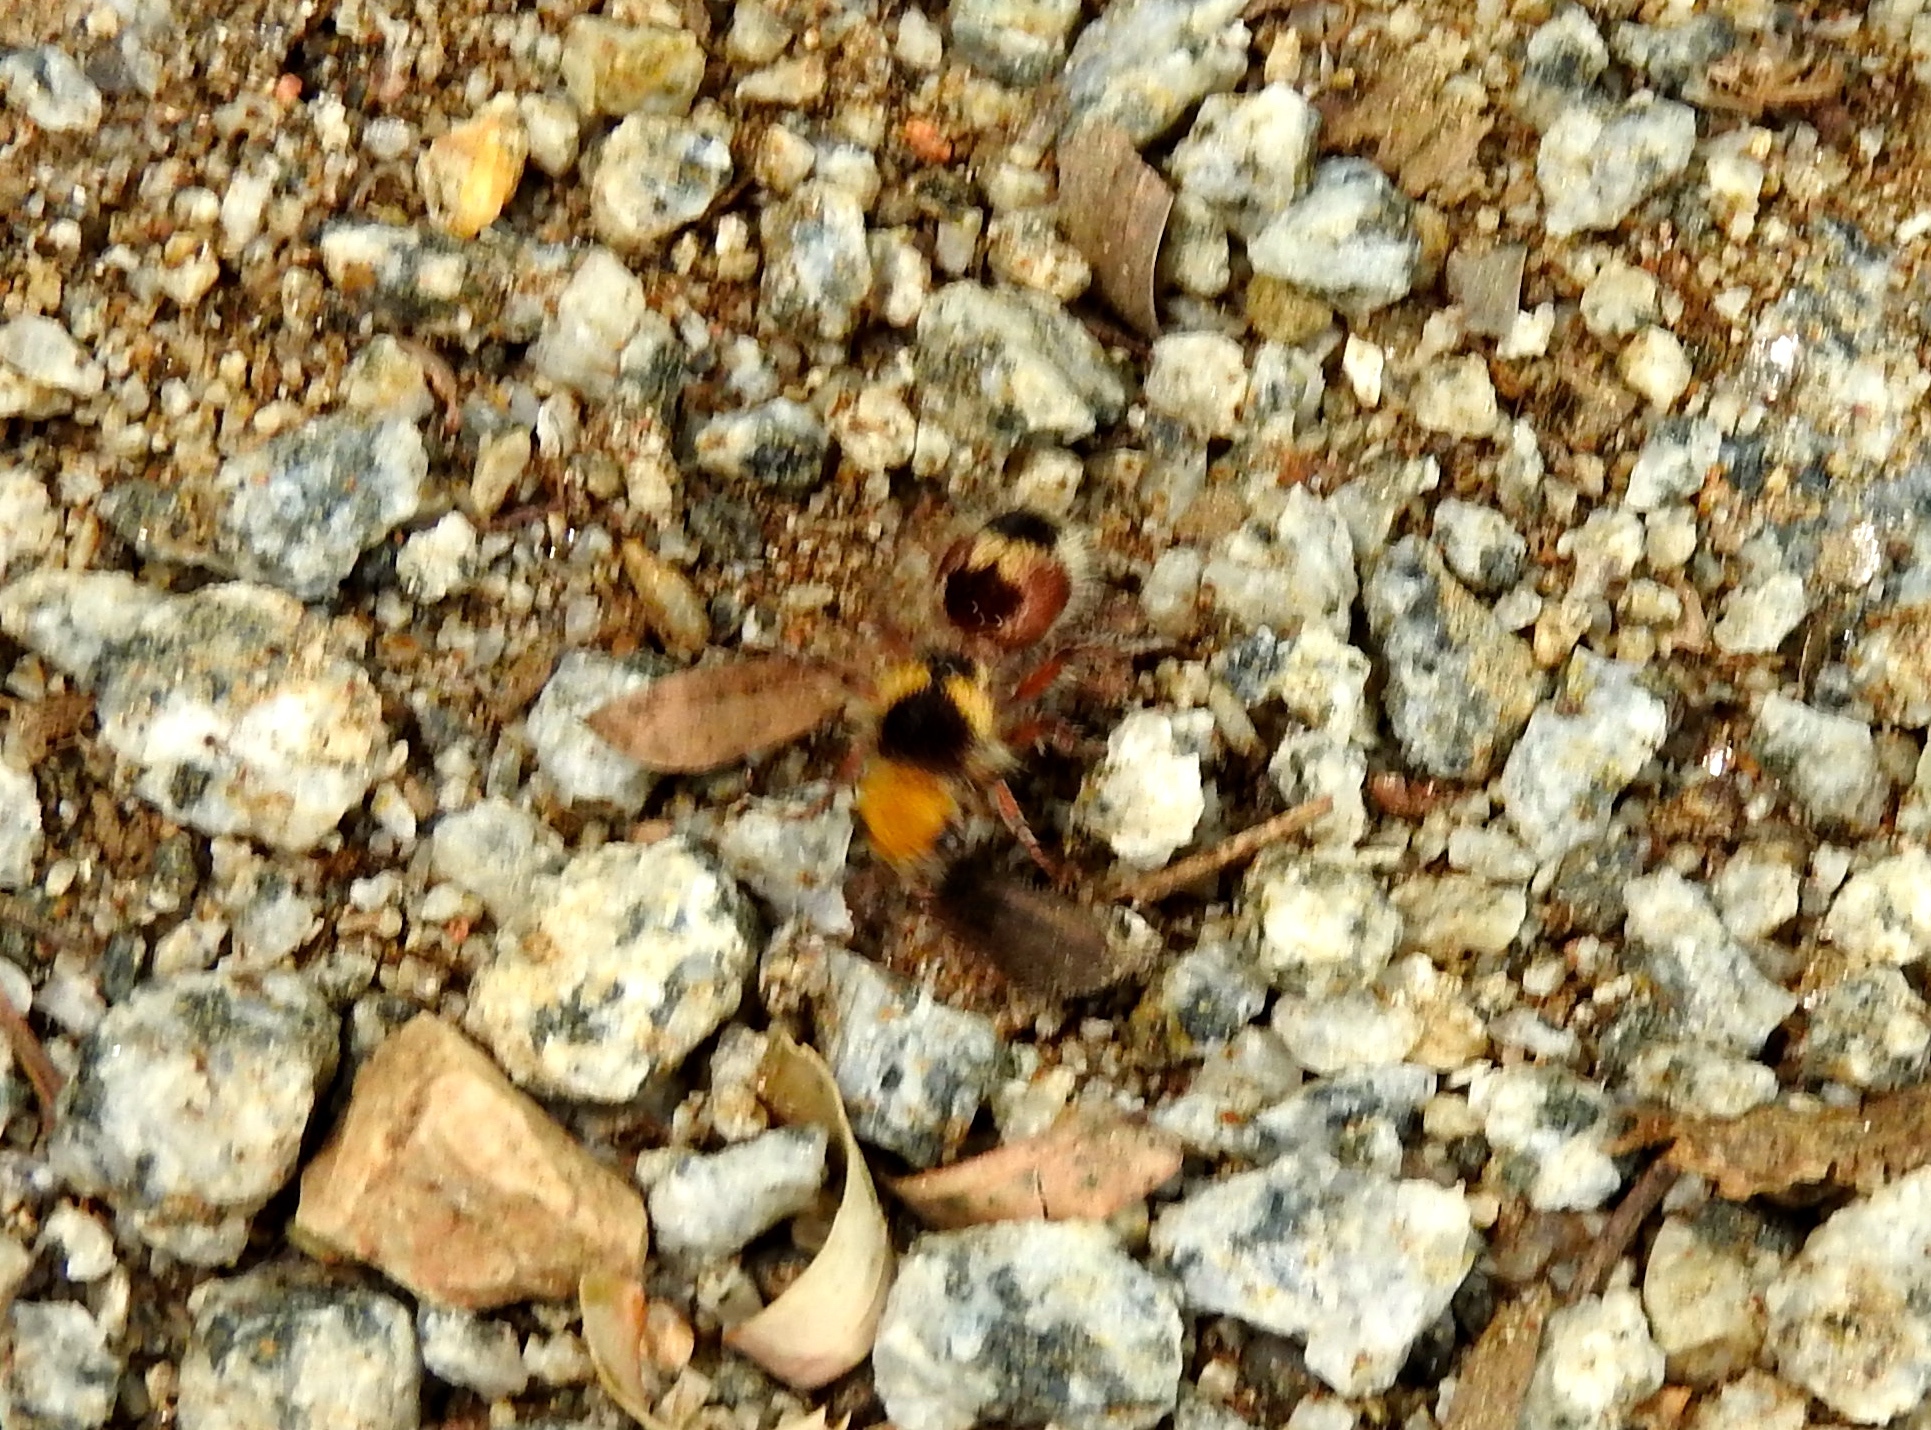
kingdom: Animalia
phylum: Arthropoda
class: Insecta
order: Hymenoptera
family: Mutillidae
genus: Dasymutilla
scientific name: Dasymutilla
